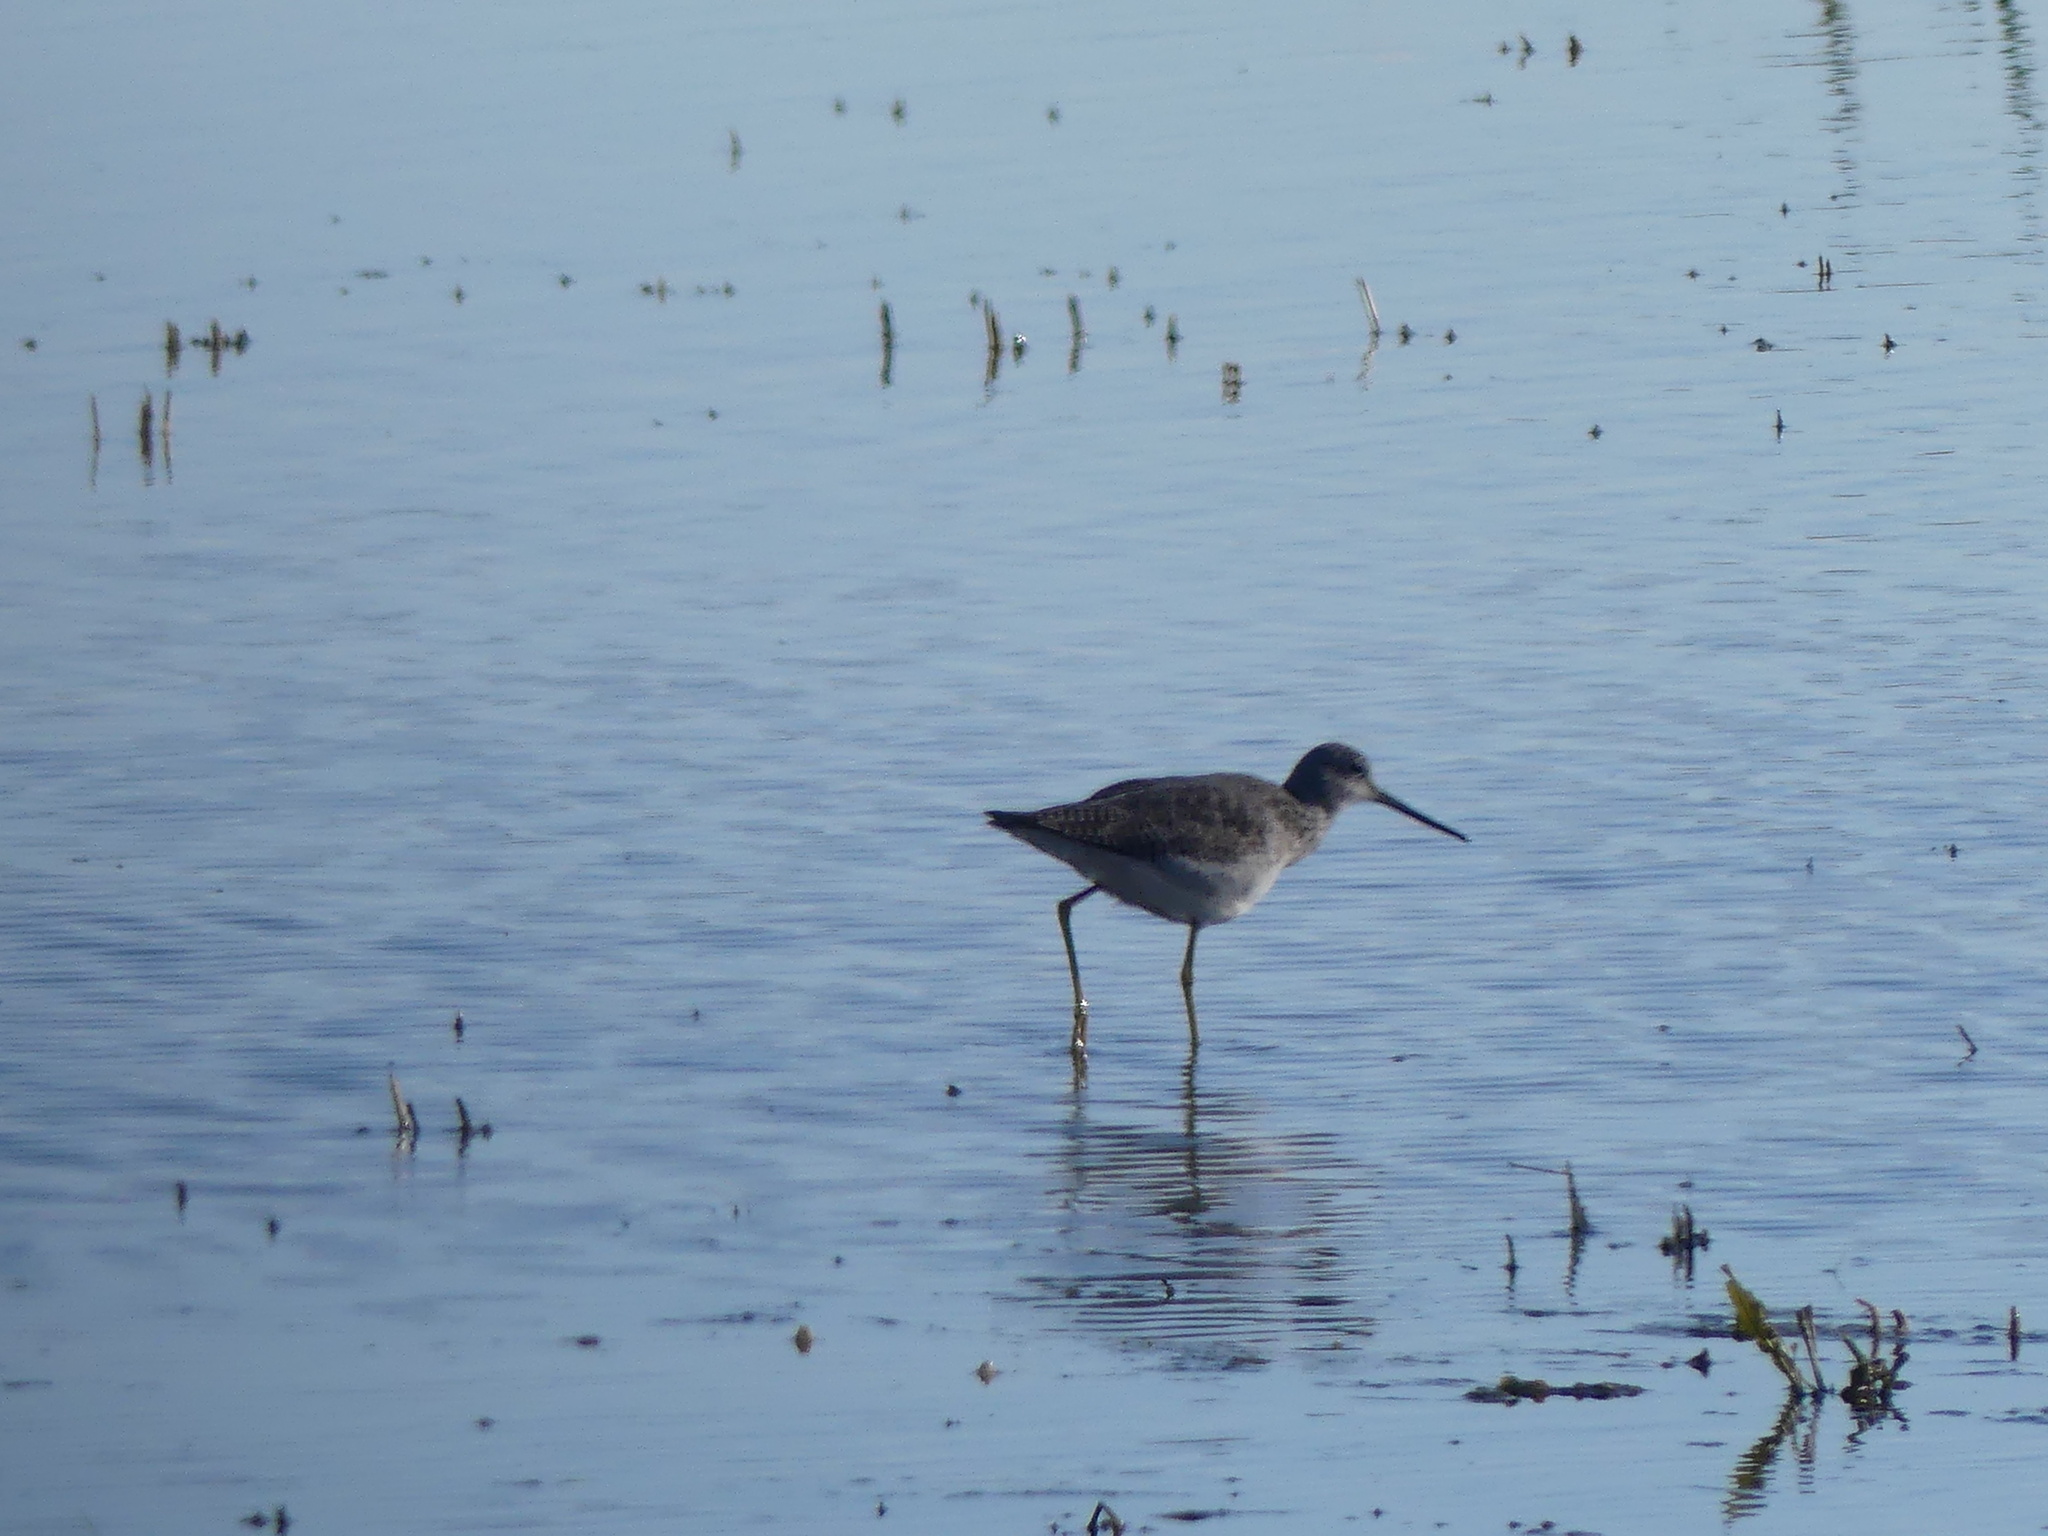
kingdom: Animalia
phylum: Chordata
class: Aves
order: Charadriiformes
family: Scolopacidae
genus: Tringa
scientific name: Tringa melanoleuca
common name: Greater yellowlegs
